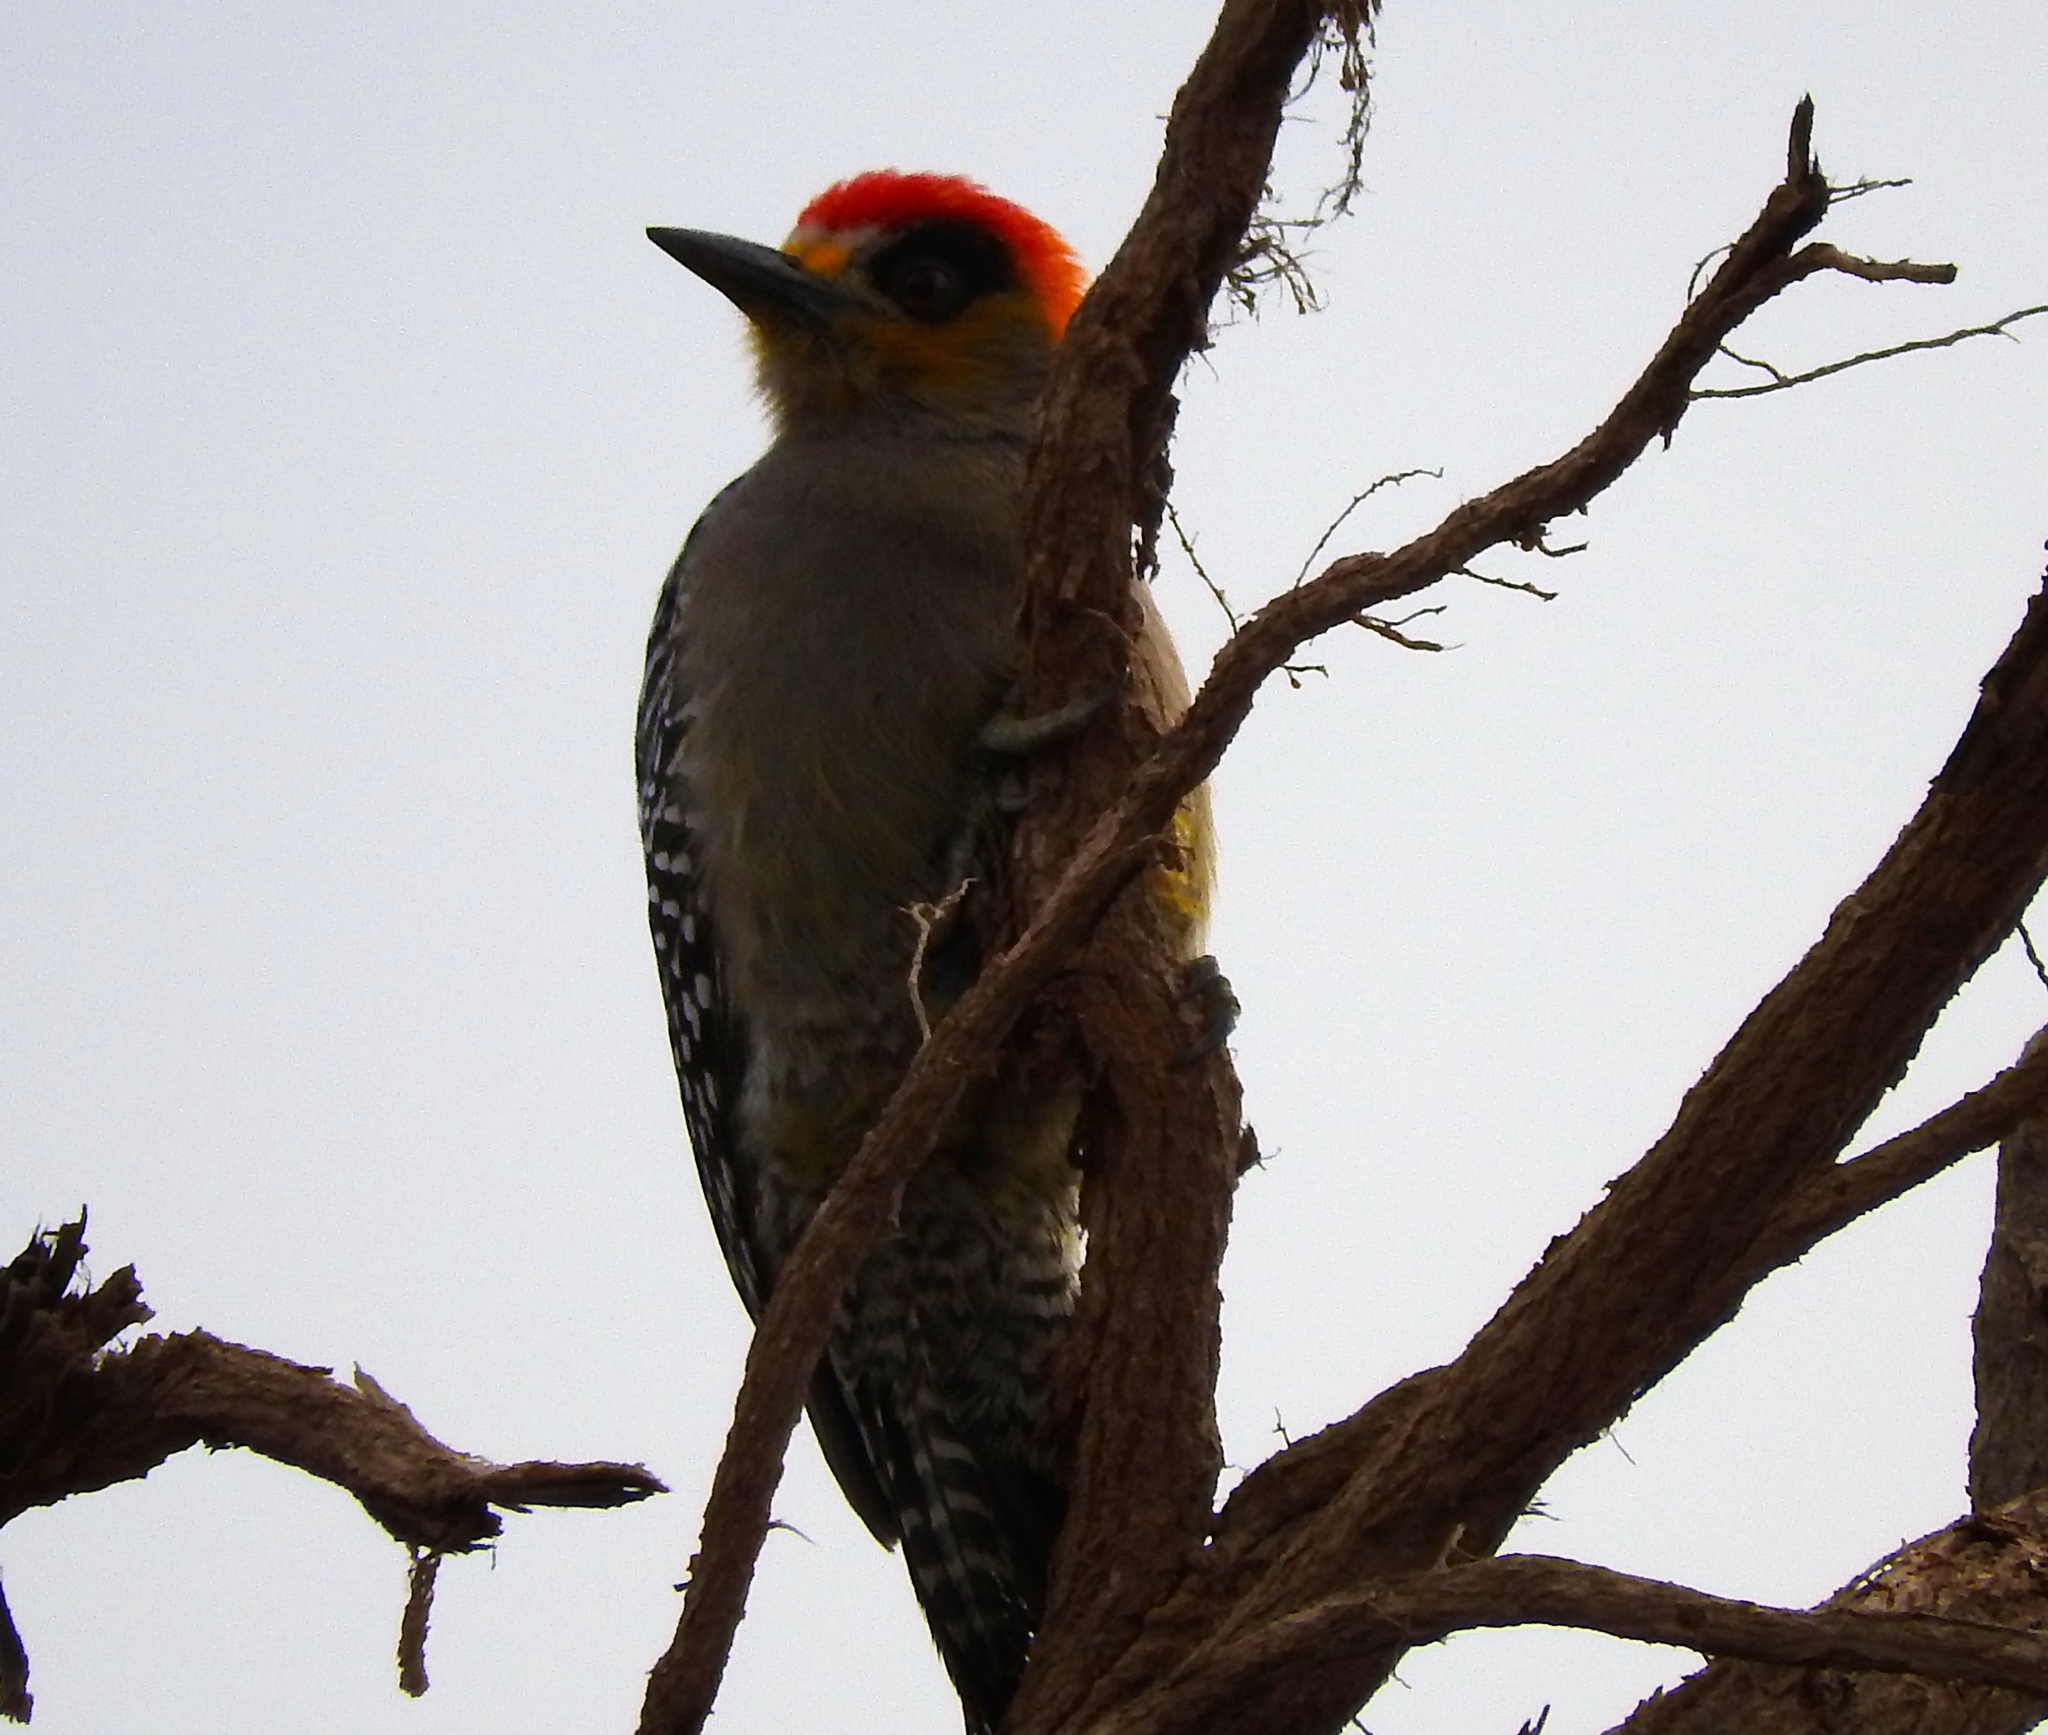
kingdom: Animalia
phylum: Chordata
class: Aves
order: Piciformes
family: Picidae
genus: Melanerpes
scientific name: Melanerpes chrysogenys
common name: Golden-cheeked woodpecker
